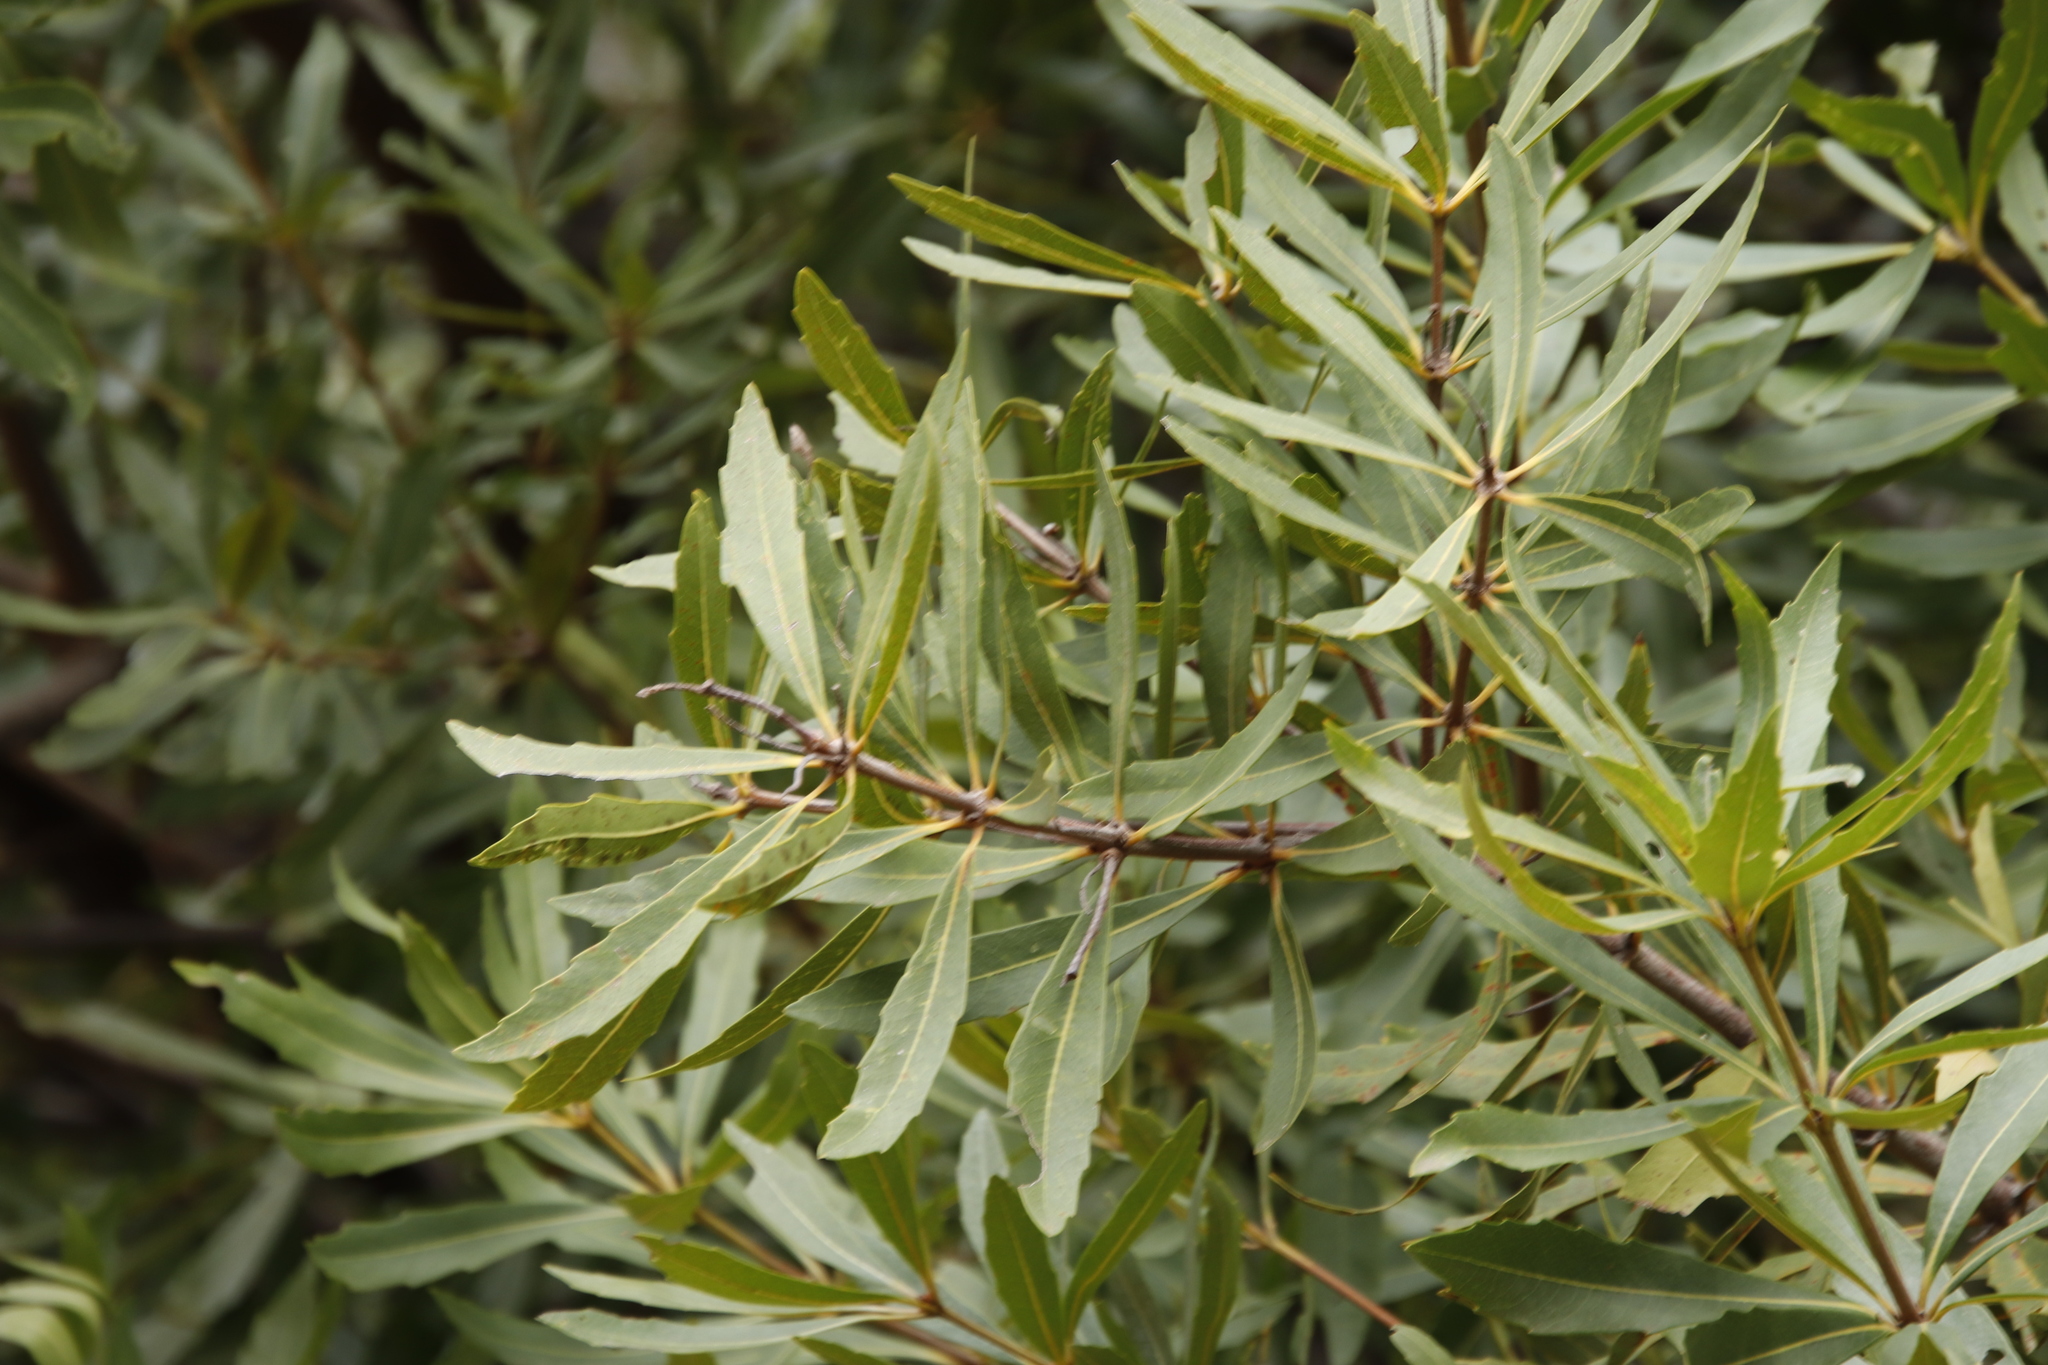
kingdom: Plantae
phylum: Tracheophyta
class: Magnoliopsida
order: Proteales
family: Proteaceae
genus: Brabejum
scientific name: Brabejum stellatifolium
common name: Wild almond
